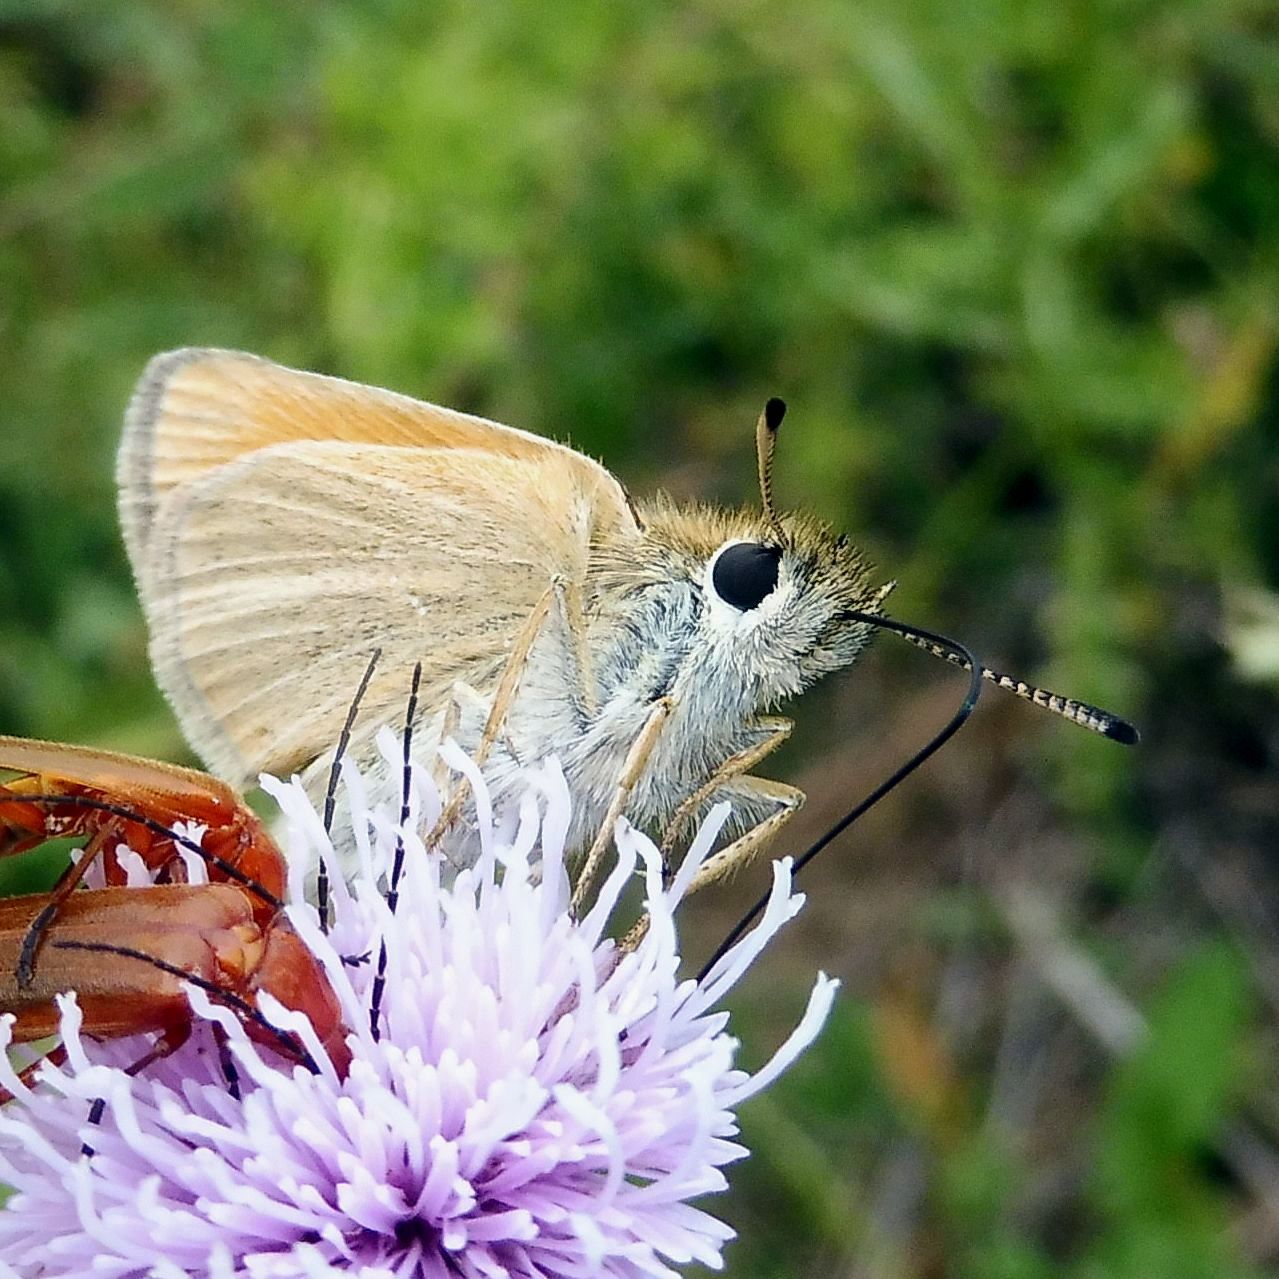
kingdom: Animalia
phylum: Arthropoda
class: Insecta
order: Lepidoptera
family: Hesperiidae
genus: Thymelicus
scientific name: Thymelicus lineola
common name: Essex skipper
